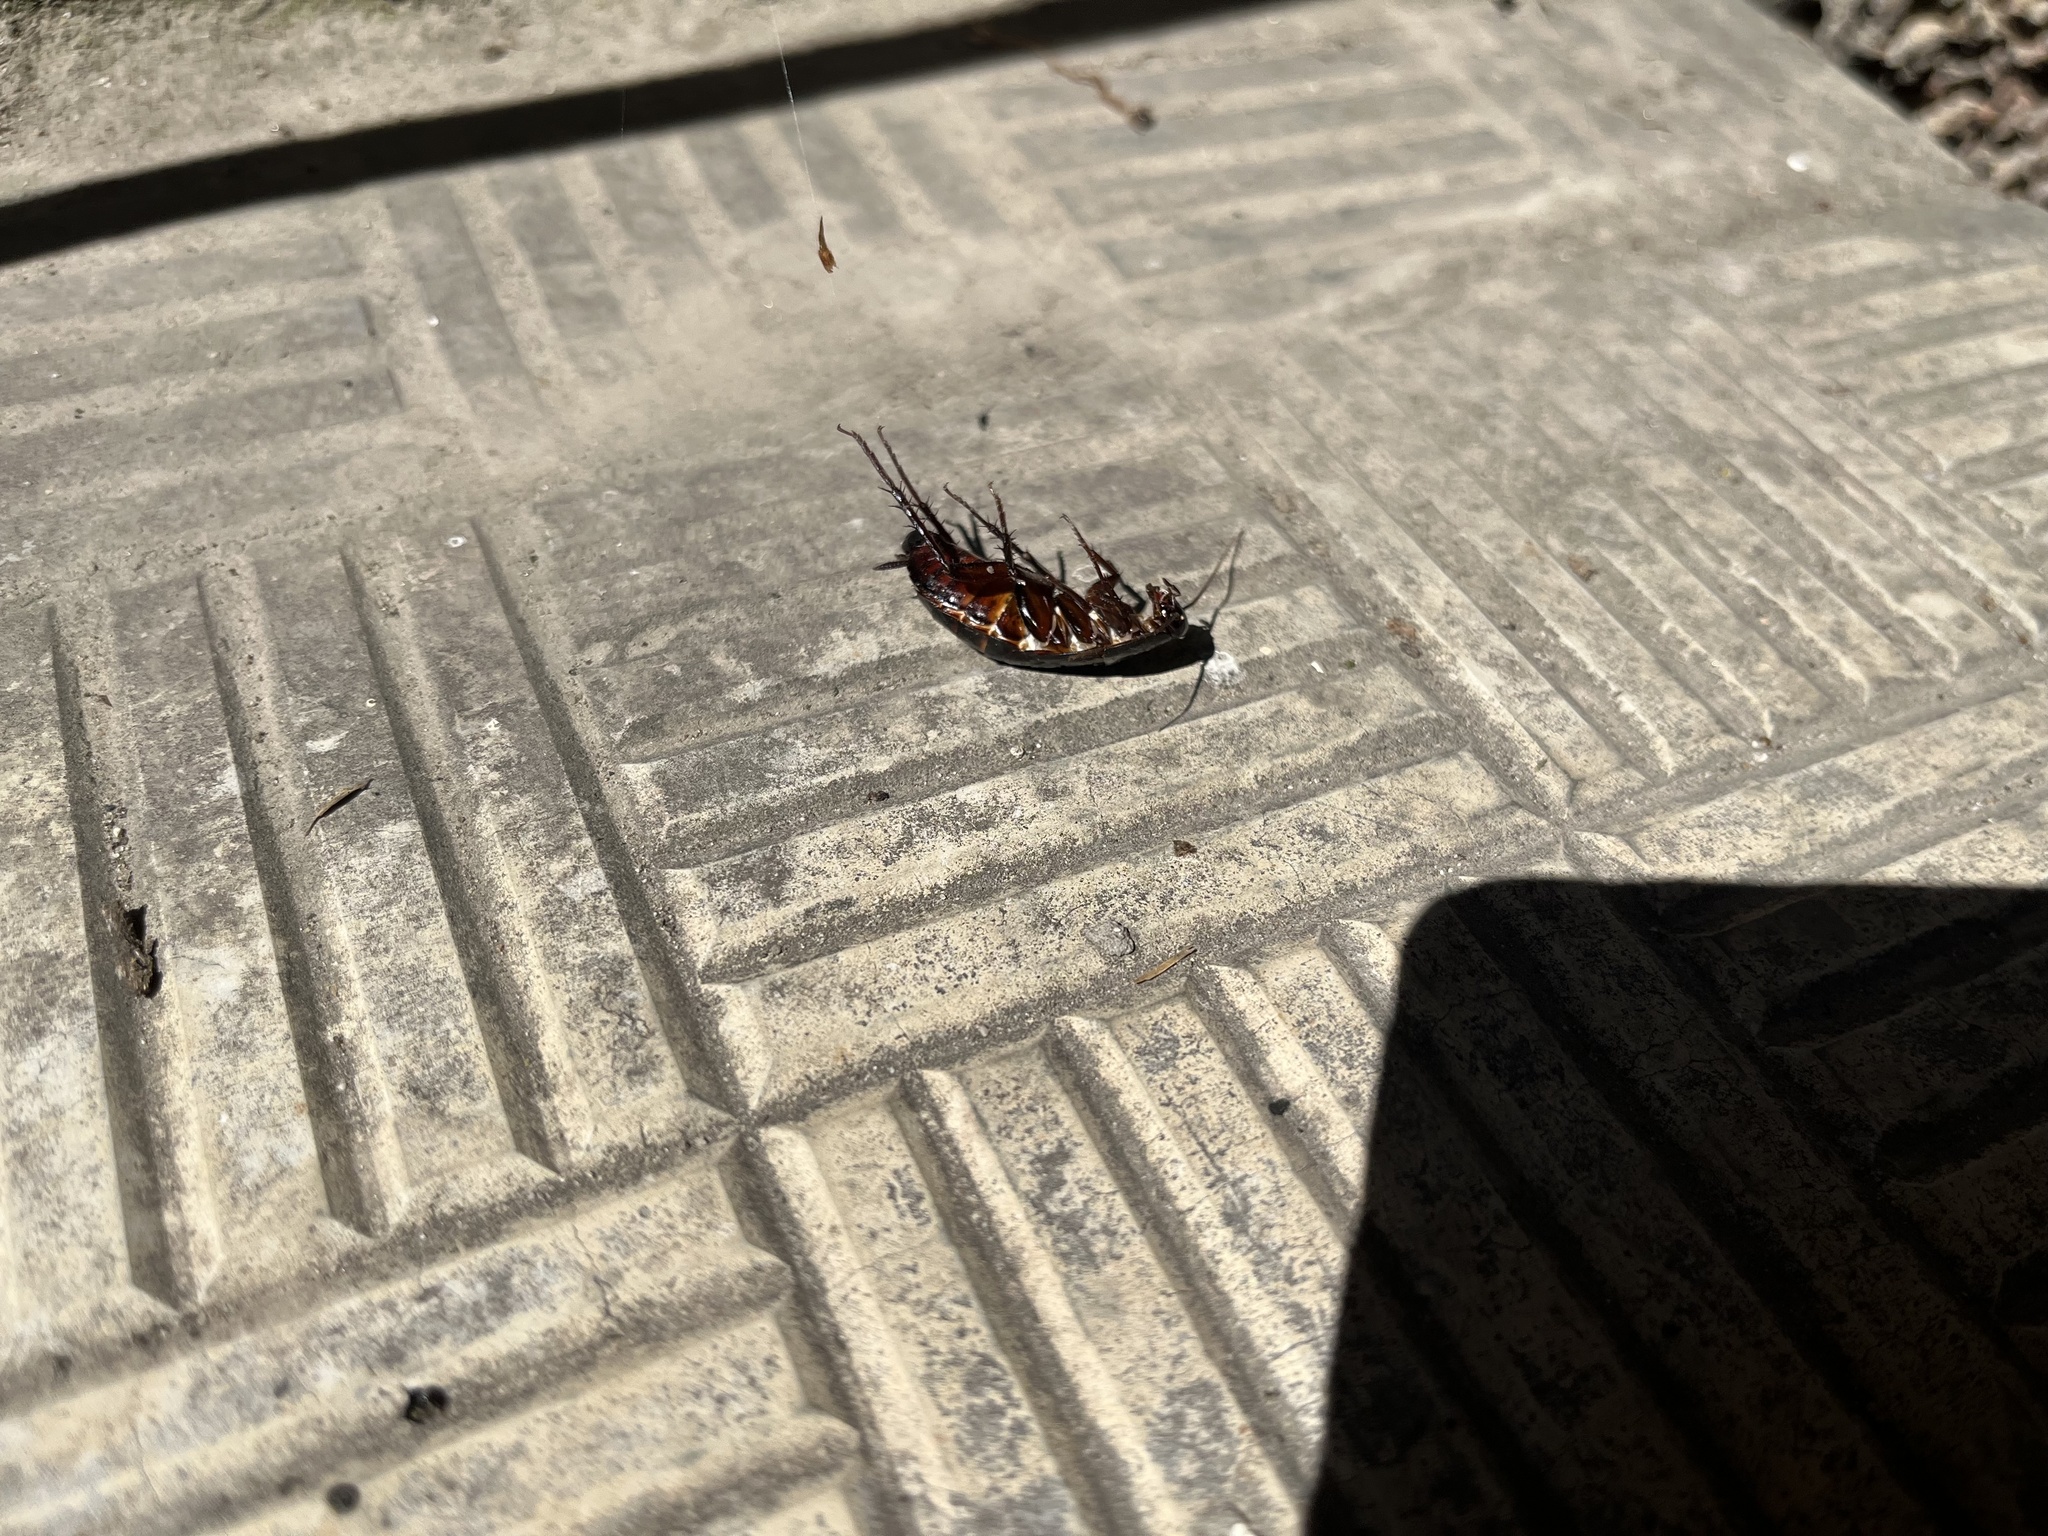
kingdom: Animalia
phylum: Arthropoda
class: Insecta
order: Blattodea
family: Blattidae
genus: Blatta
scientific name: Blatta orientalis
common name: Oriental cockroach
